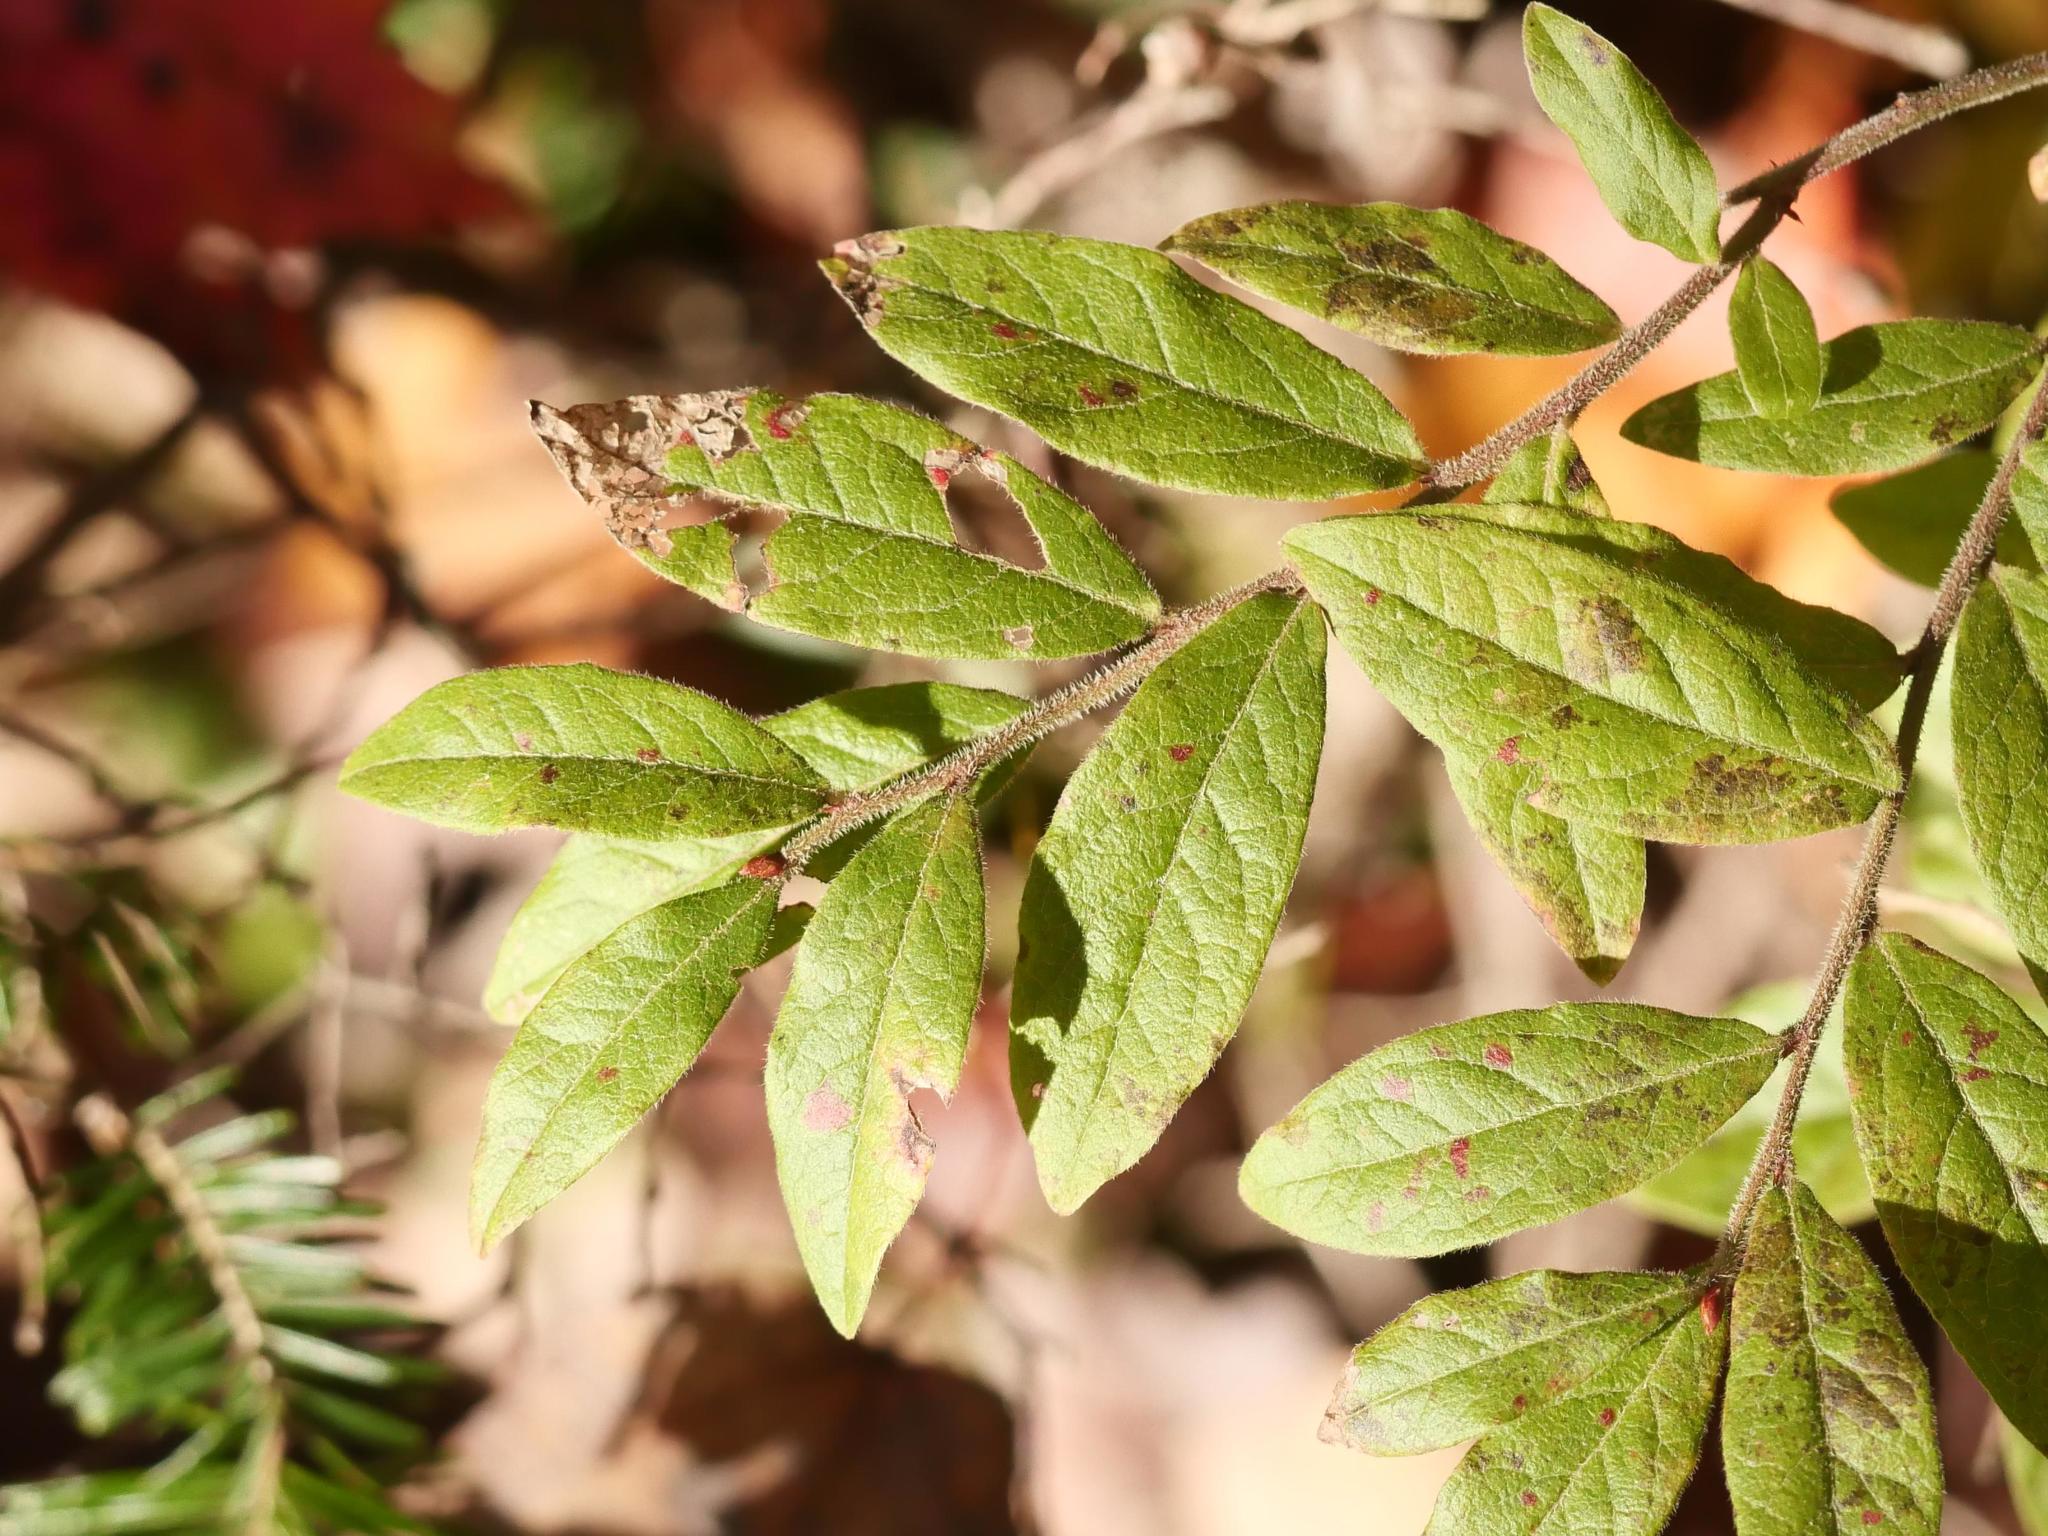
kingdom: Plantae
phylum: Tracheophyta
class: Magnoliopsida
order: Ericales
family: Ericaceae
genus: Vaccinium
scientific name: Vaccinium myrtilloides
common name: Canada blueberry
